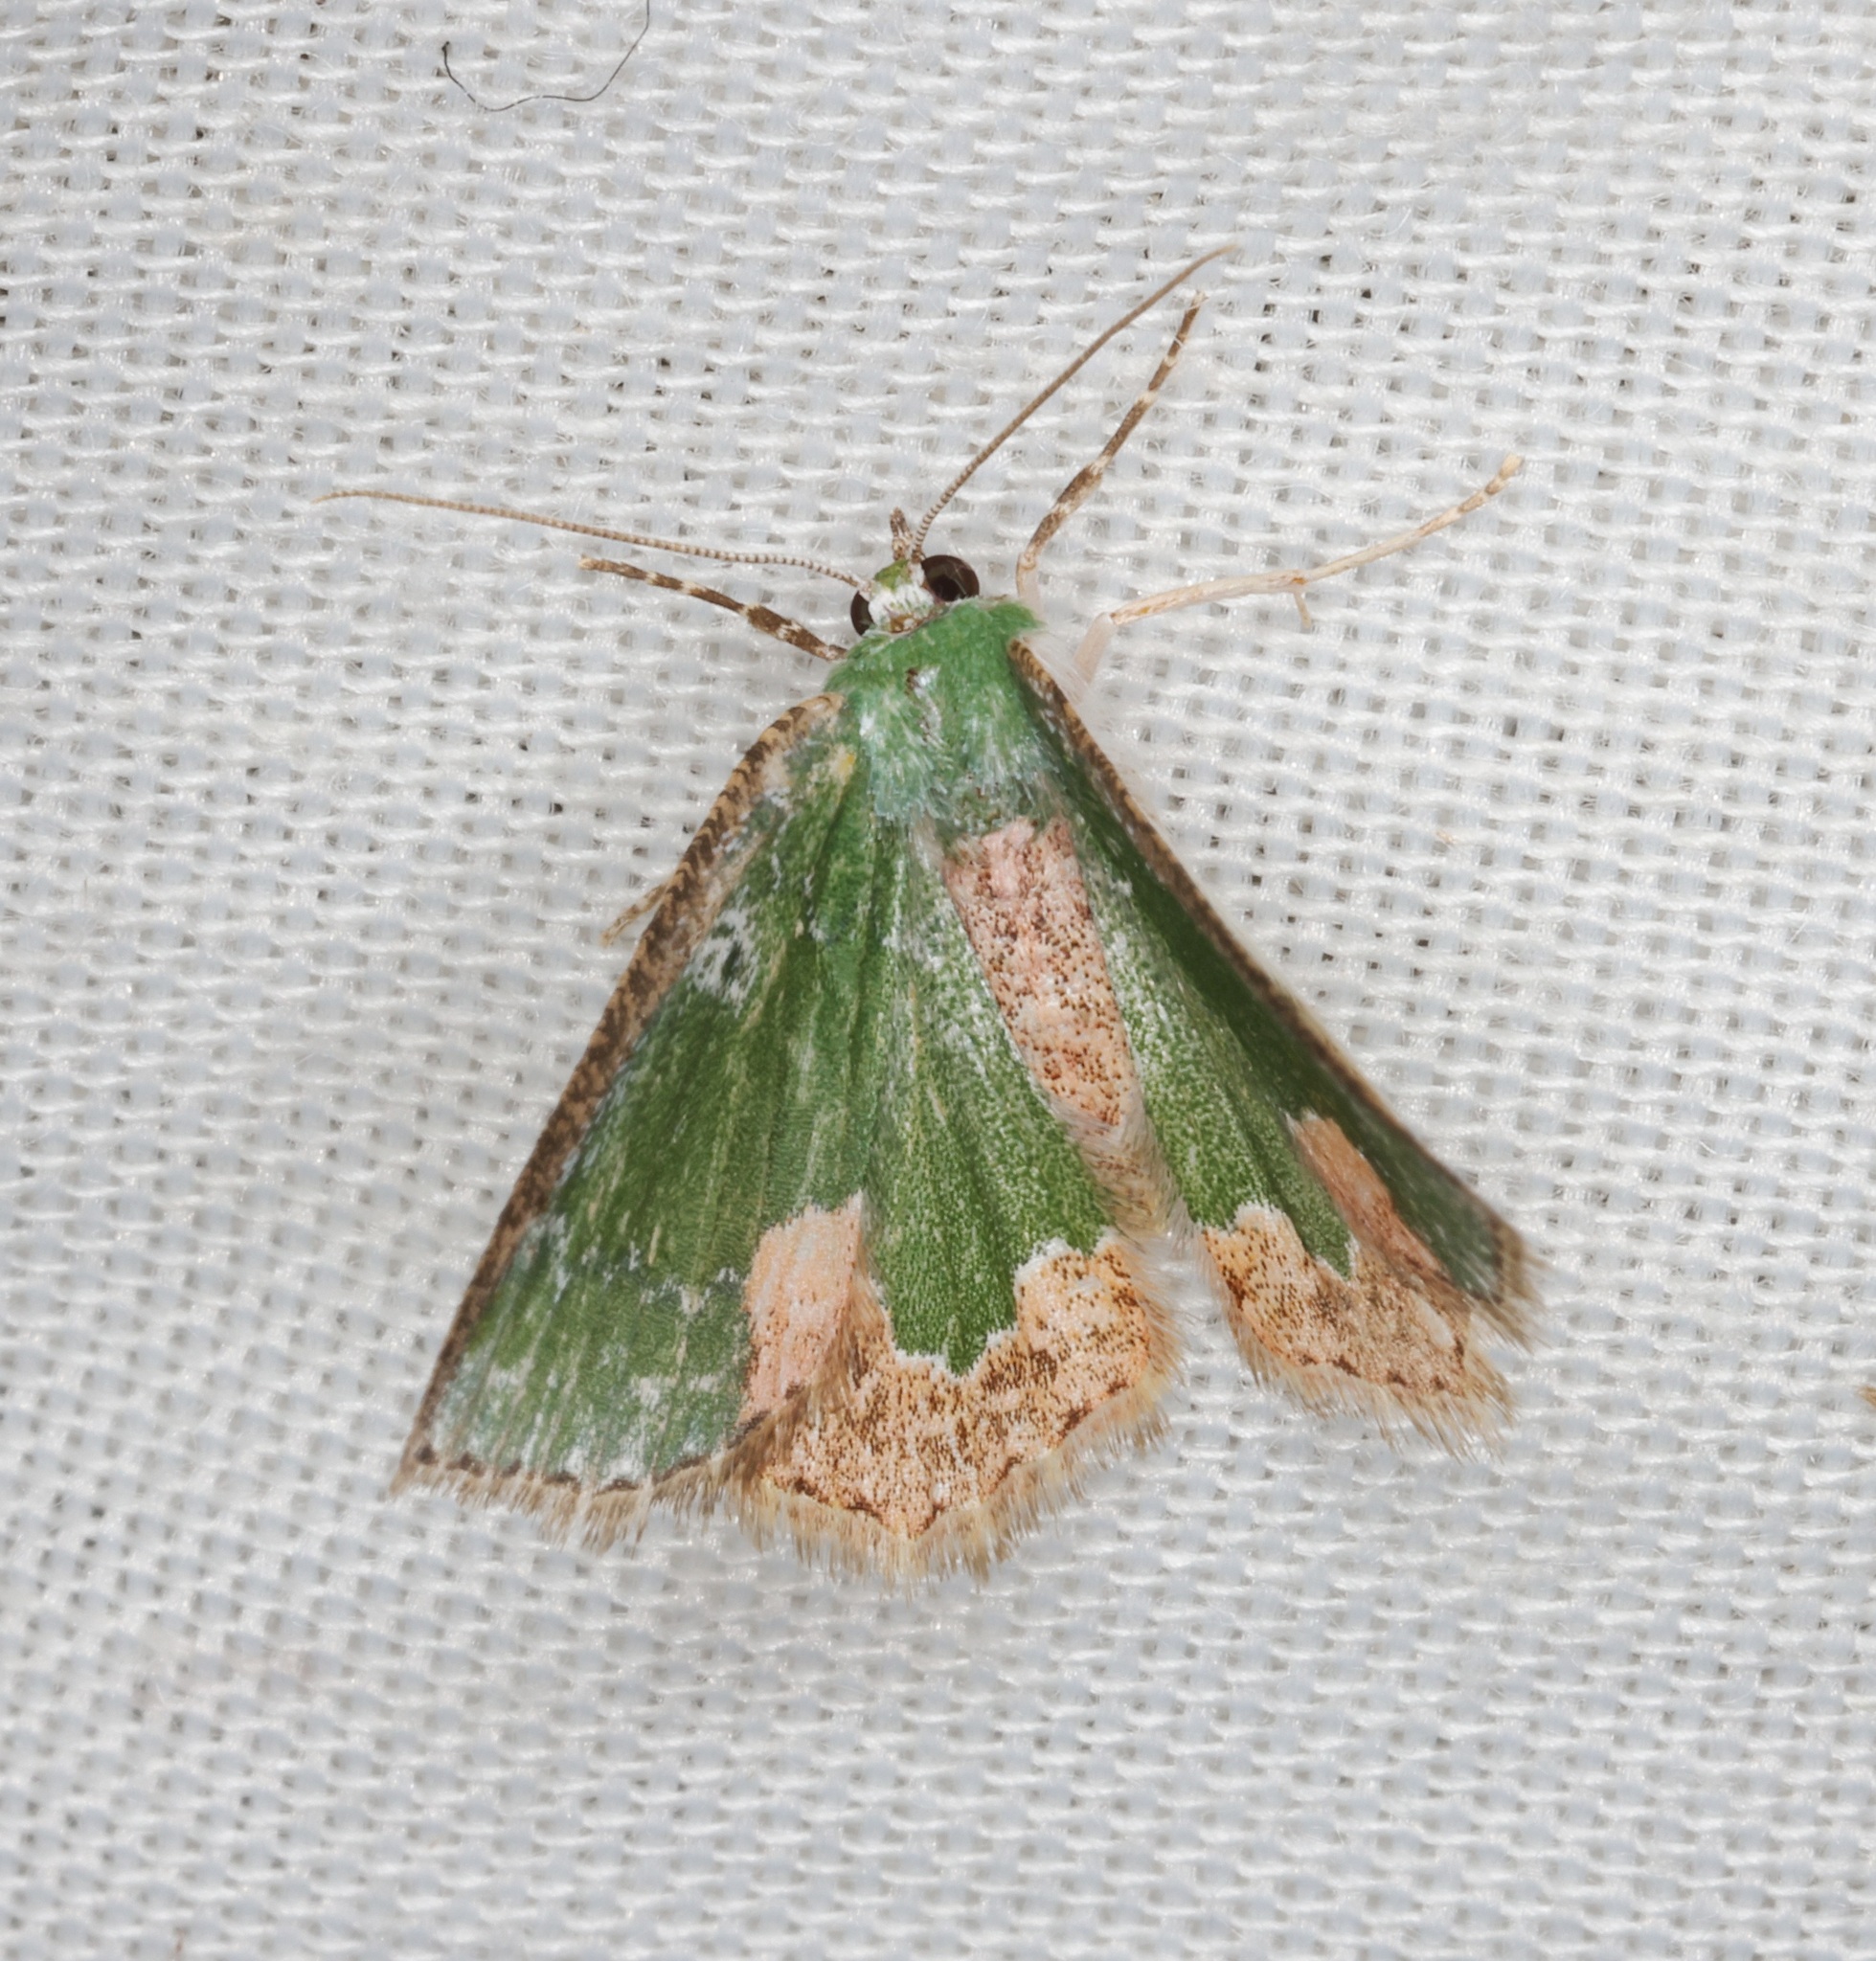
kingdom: Animalia
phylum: Arthropoda
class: Insecta
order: Lepidoptera
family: Geometridae
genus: Eucyclodes
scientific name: Eucyclodes albisparsa
